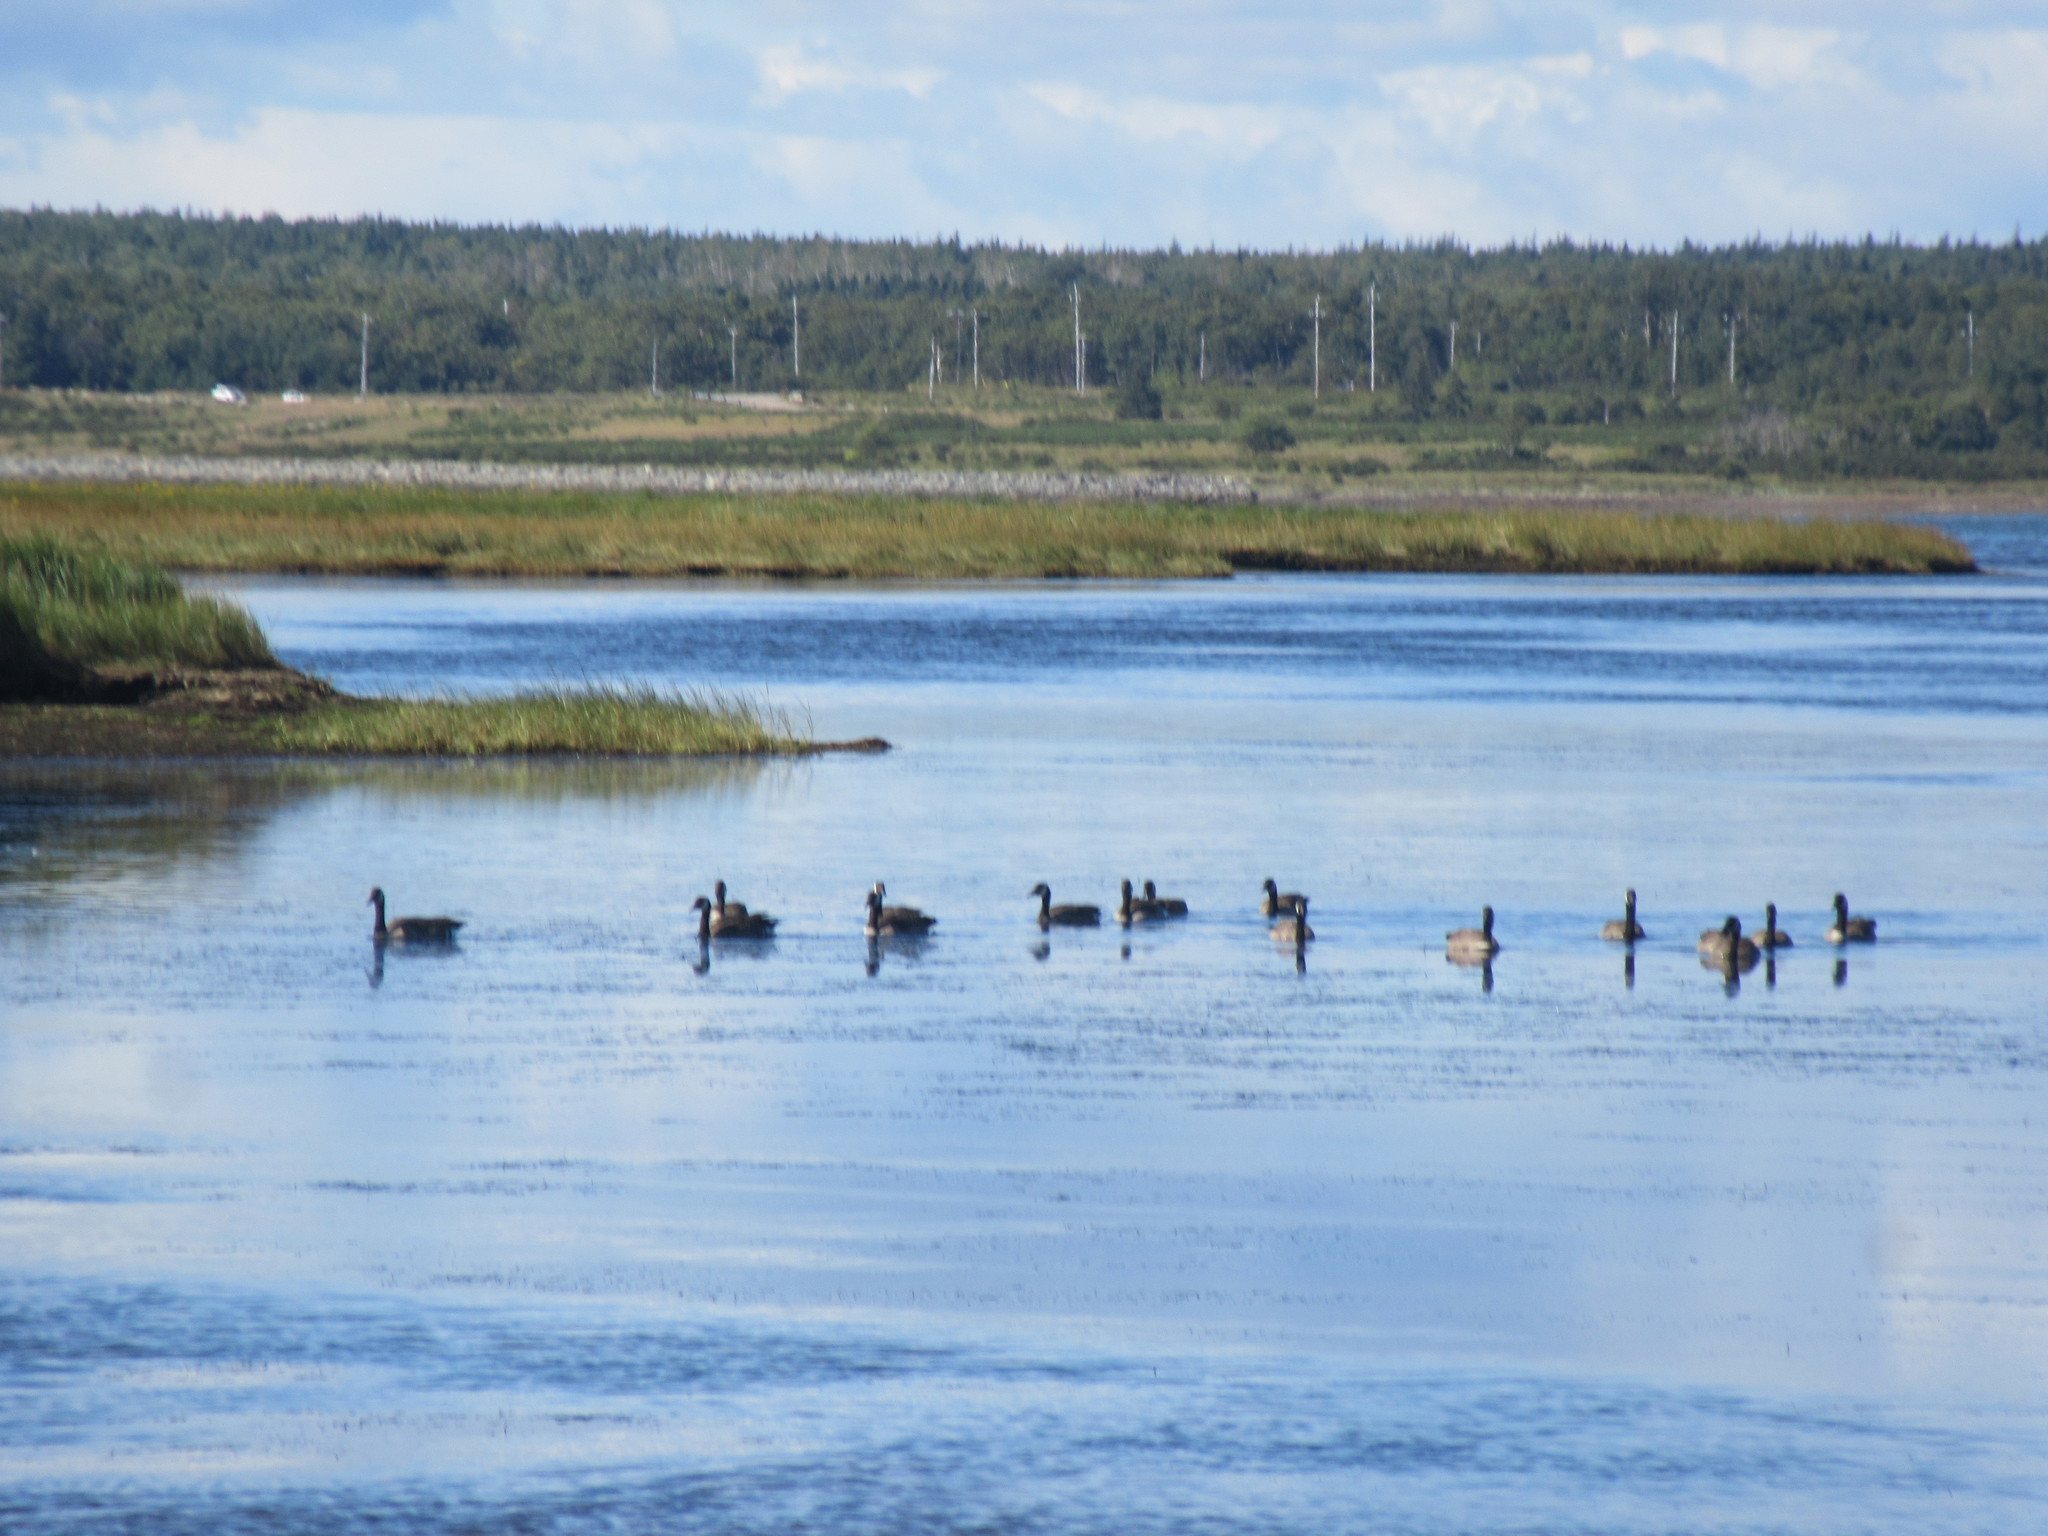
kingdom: Animalia
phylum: Chordata
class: Aves
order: Anseriformes
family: Anatidae
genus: Branta
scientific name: Branta canadensis
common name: Canada goose
